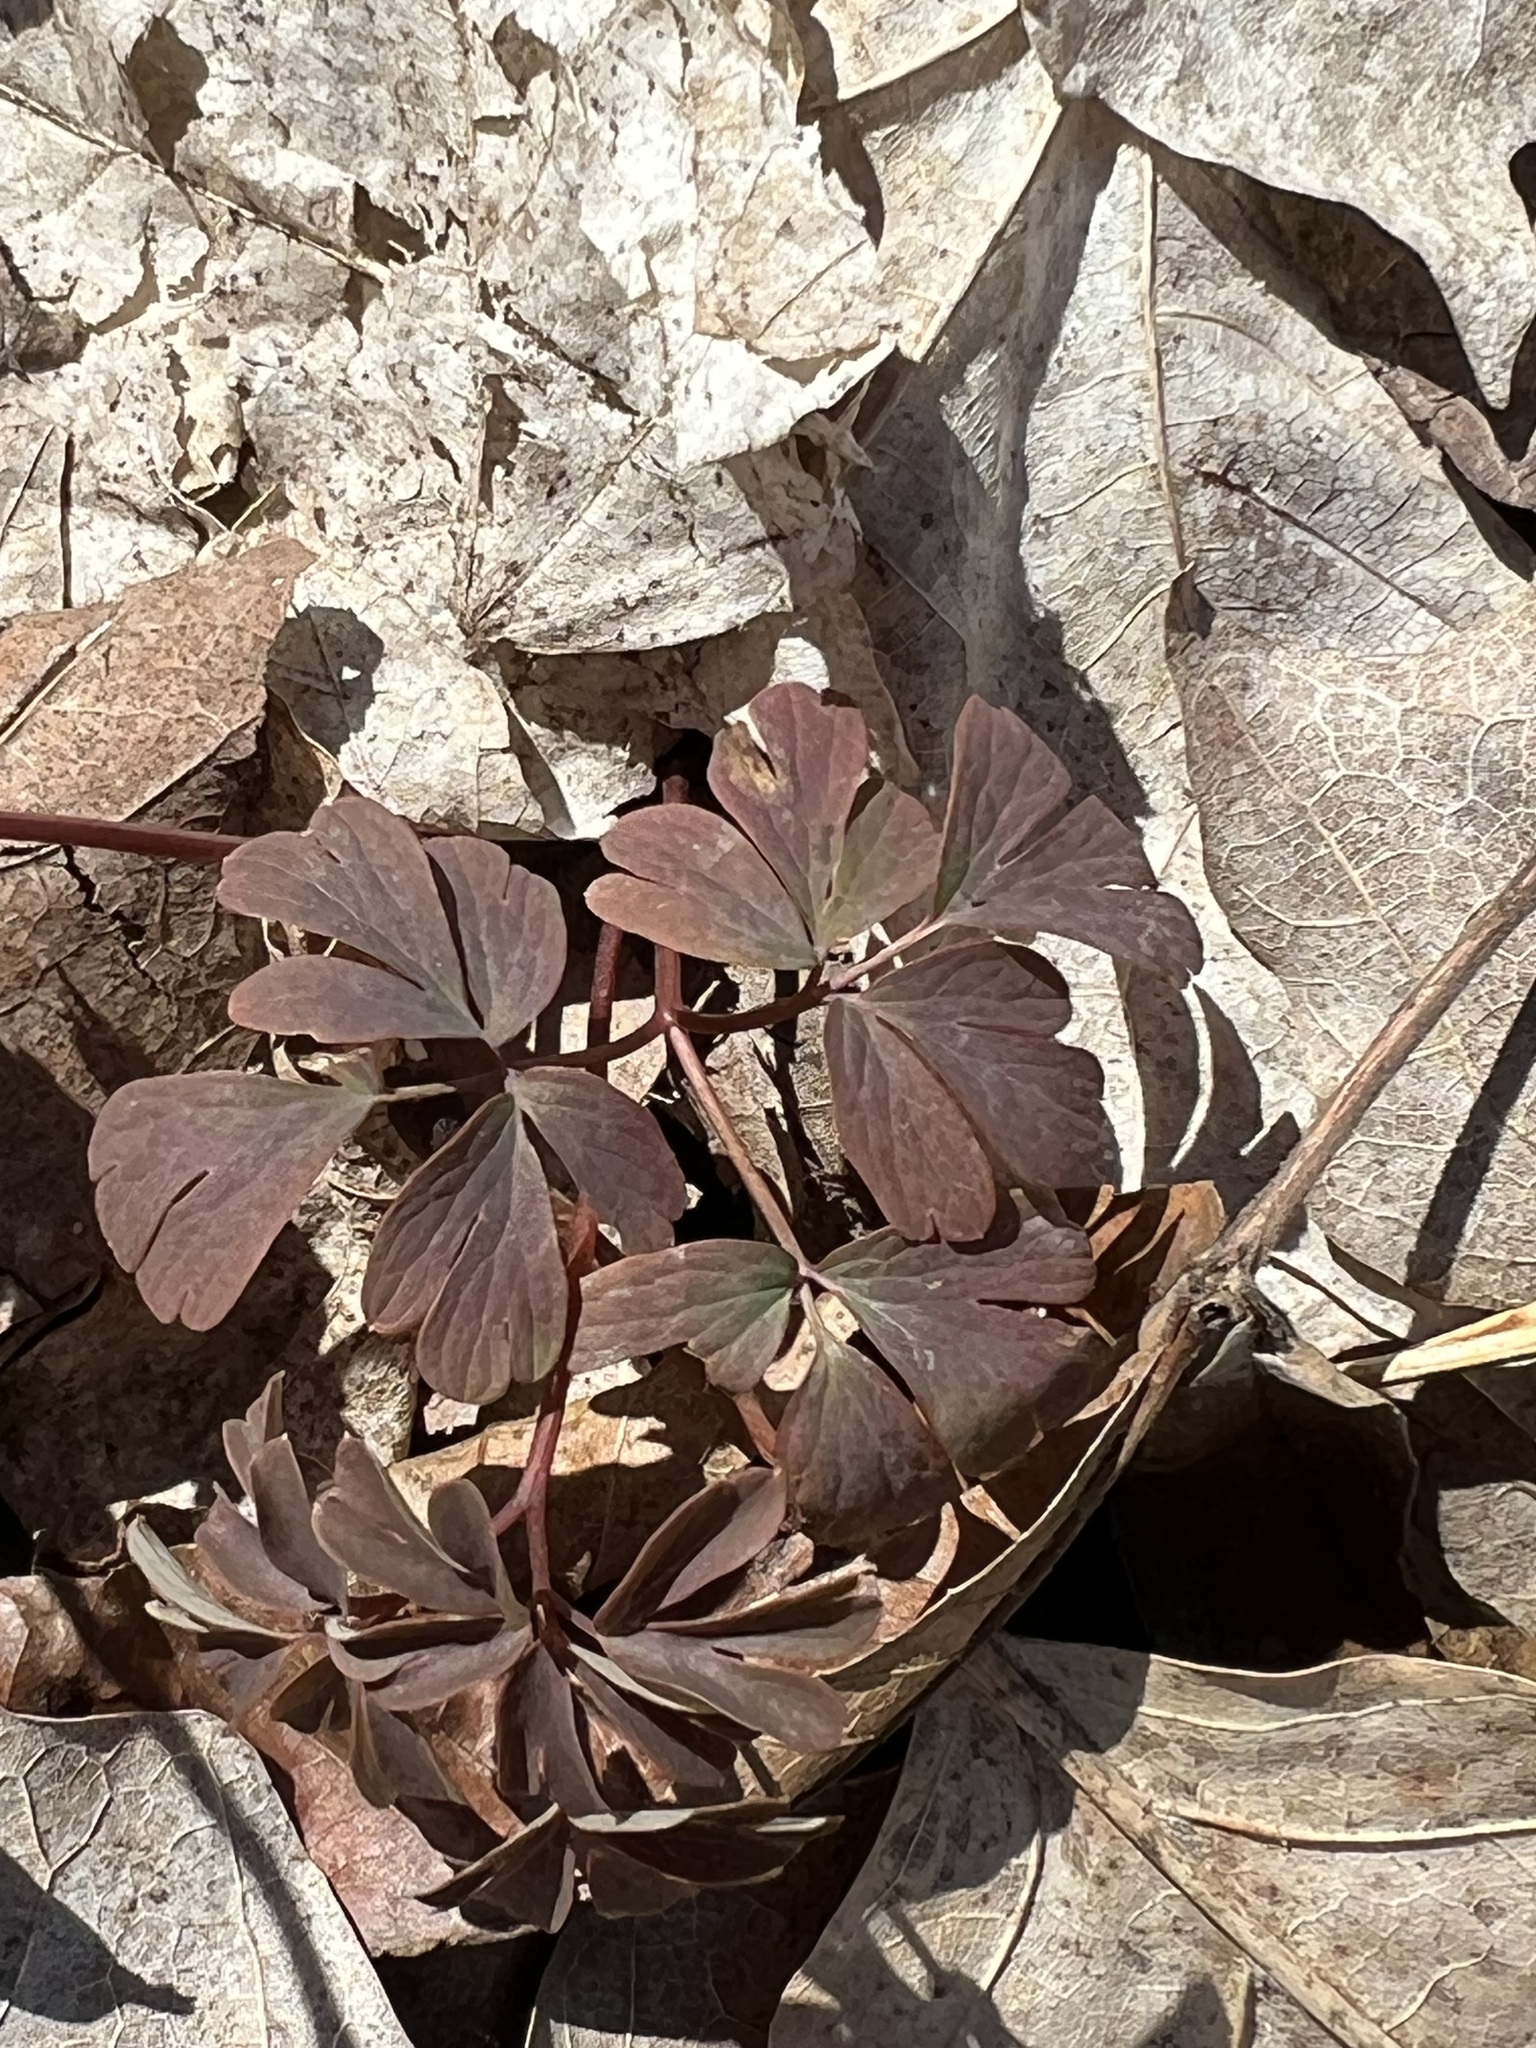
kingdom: Plantae
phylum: Tracheophyta
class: Magnoliopsida
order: Ranunculales
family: Ranunculaceae
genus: Enemion
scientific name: Enemion biternatum
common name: Eastern false rue-anemone
